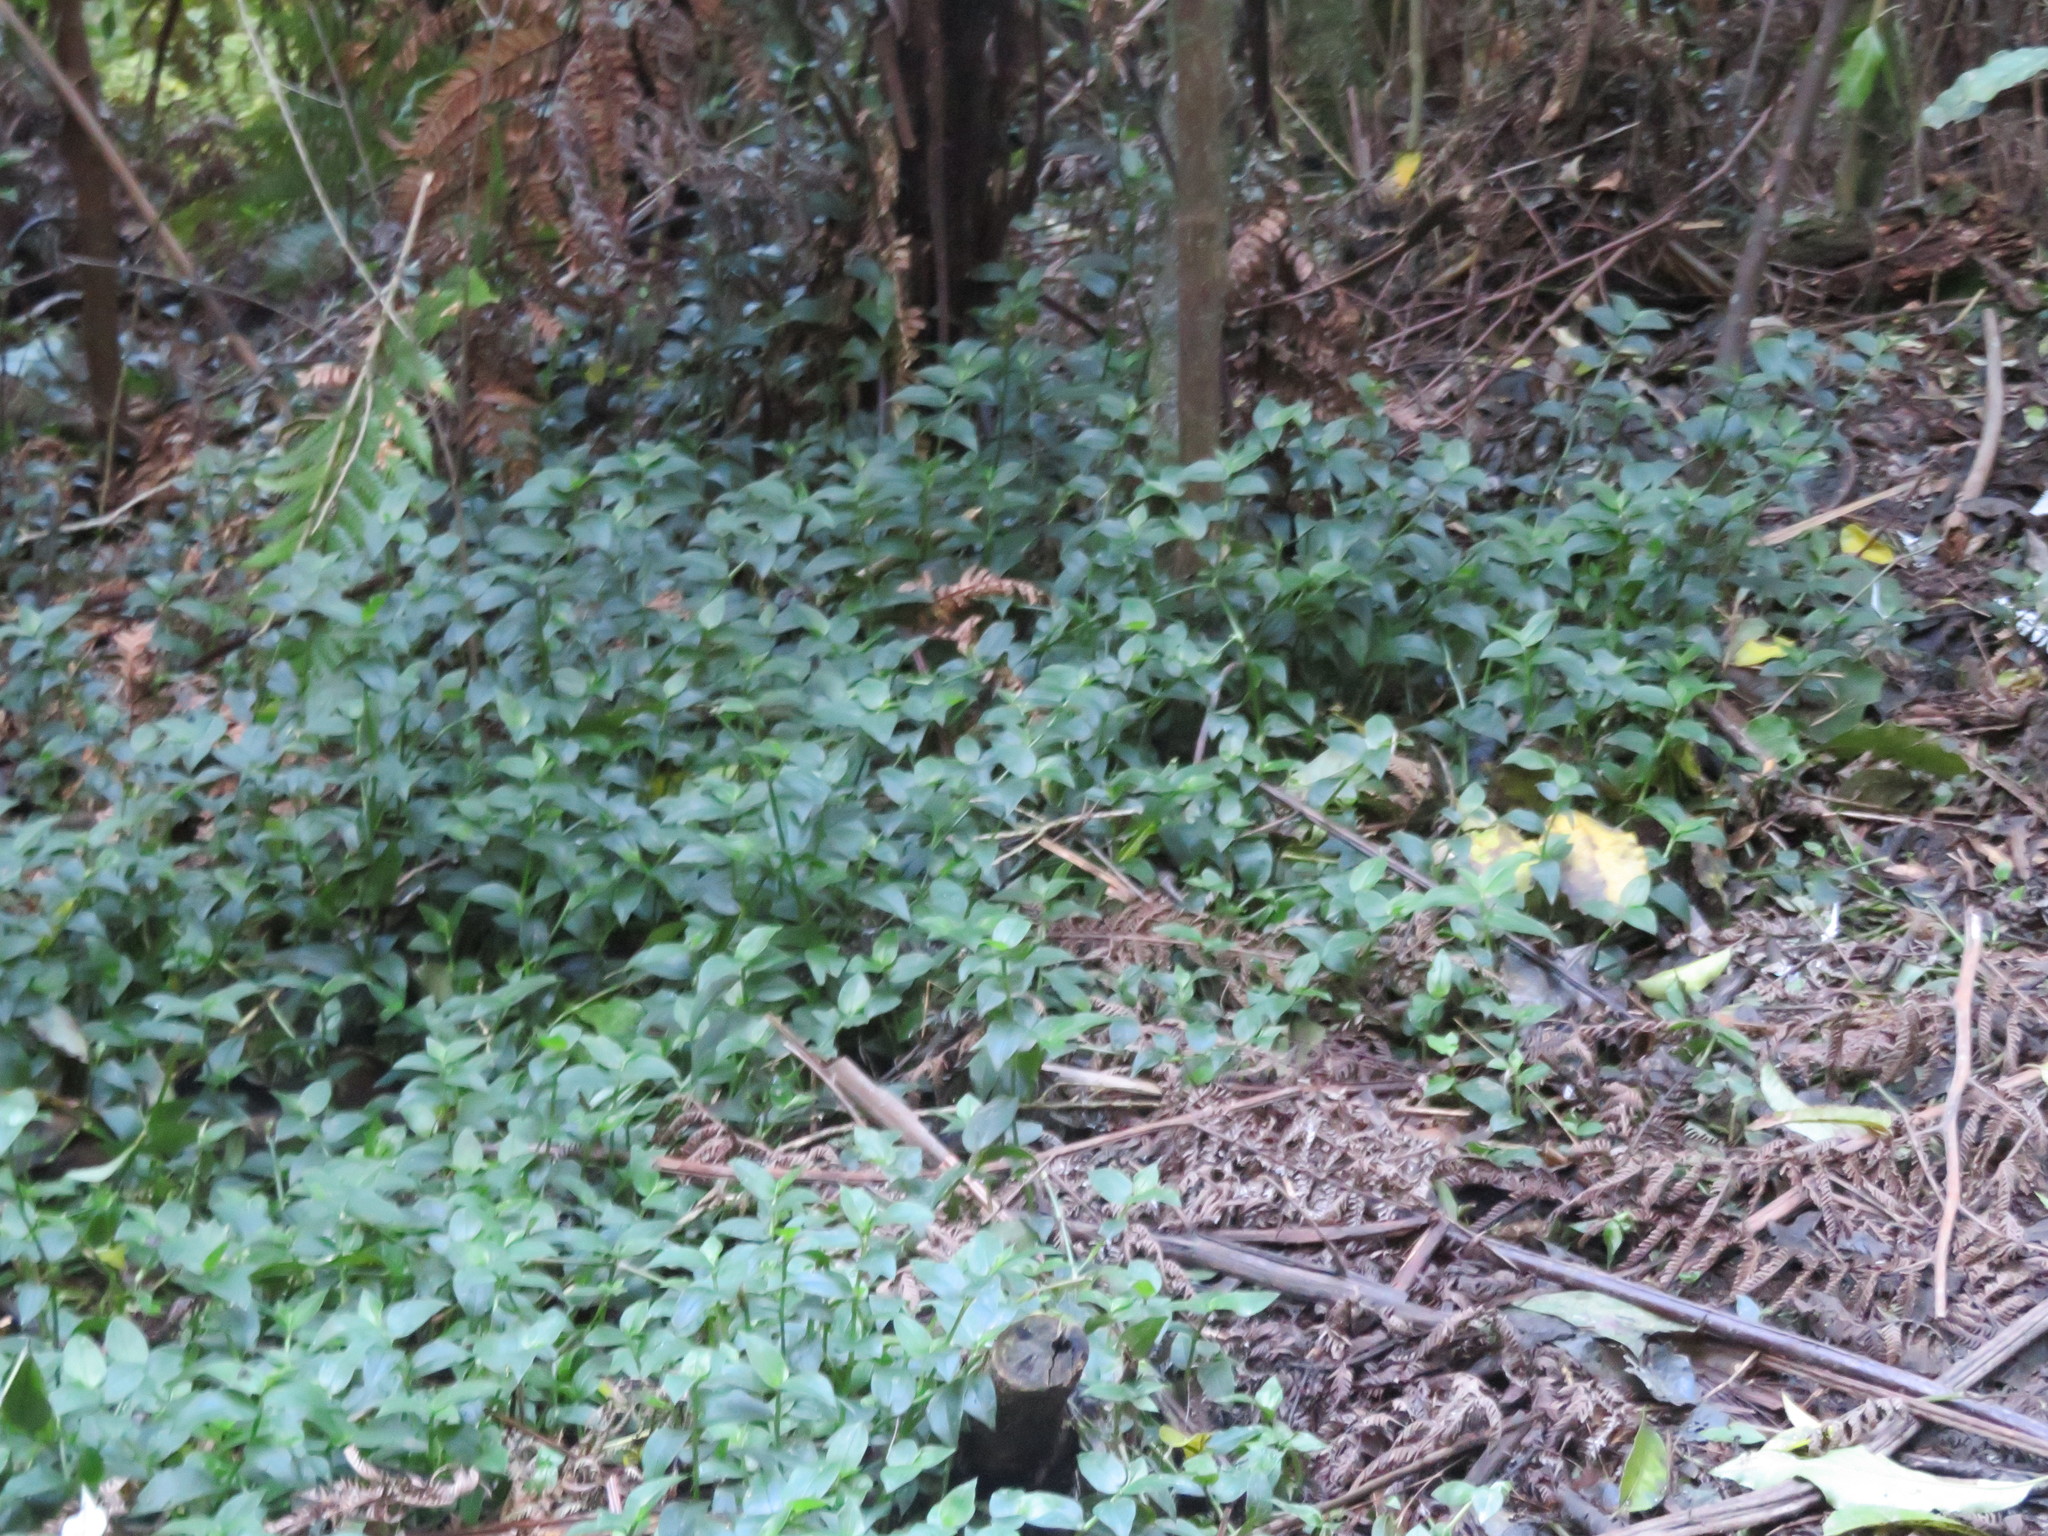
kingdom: Plantae
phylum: Tracheophyta
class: Liliopsida
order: Commelinales
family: Commelinaceae
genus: Tradescantia
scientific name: Tradescantia fluminensis
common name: Wandering-jew
